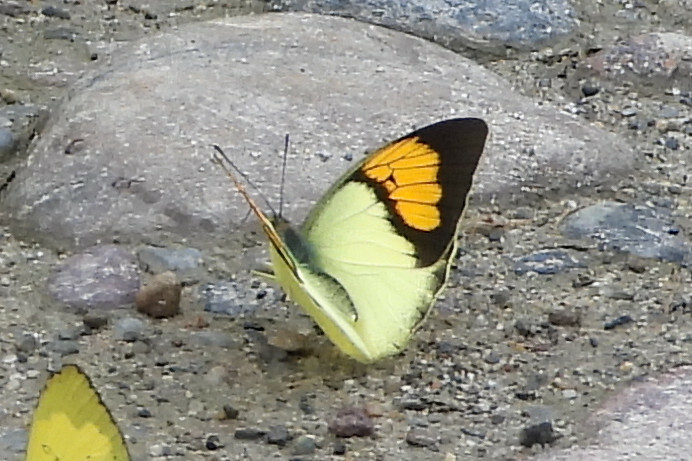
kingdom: Animalia
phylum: Arthropoda
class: Insecta
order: Lepidoptera
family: Pieridae
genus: Ixias
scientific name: Ixias pyrene
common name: Yellow orange tip
